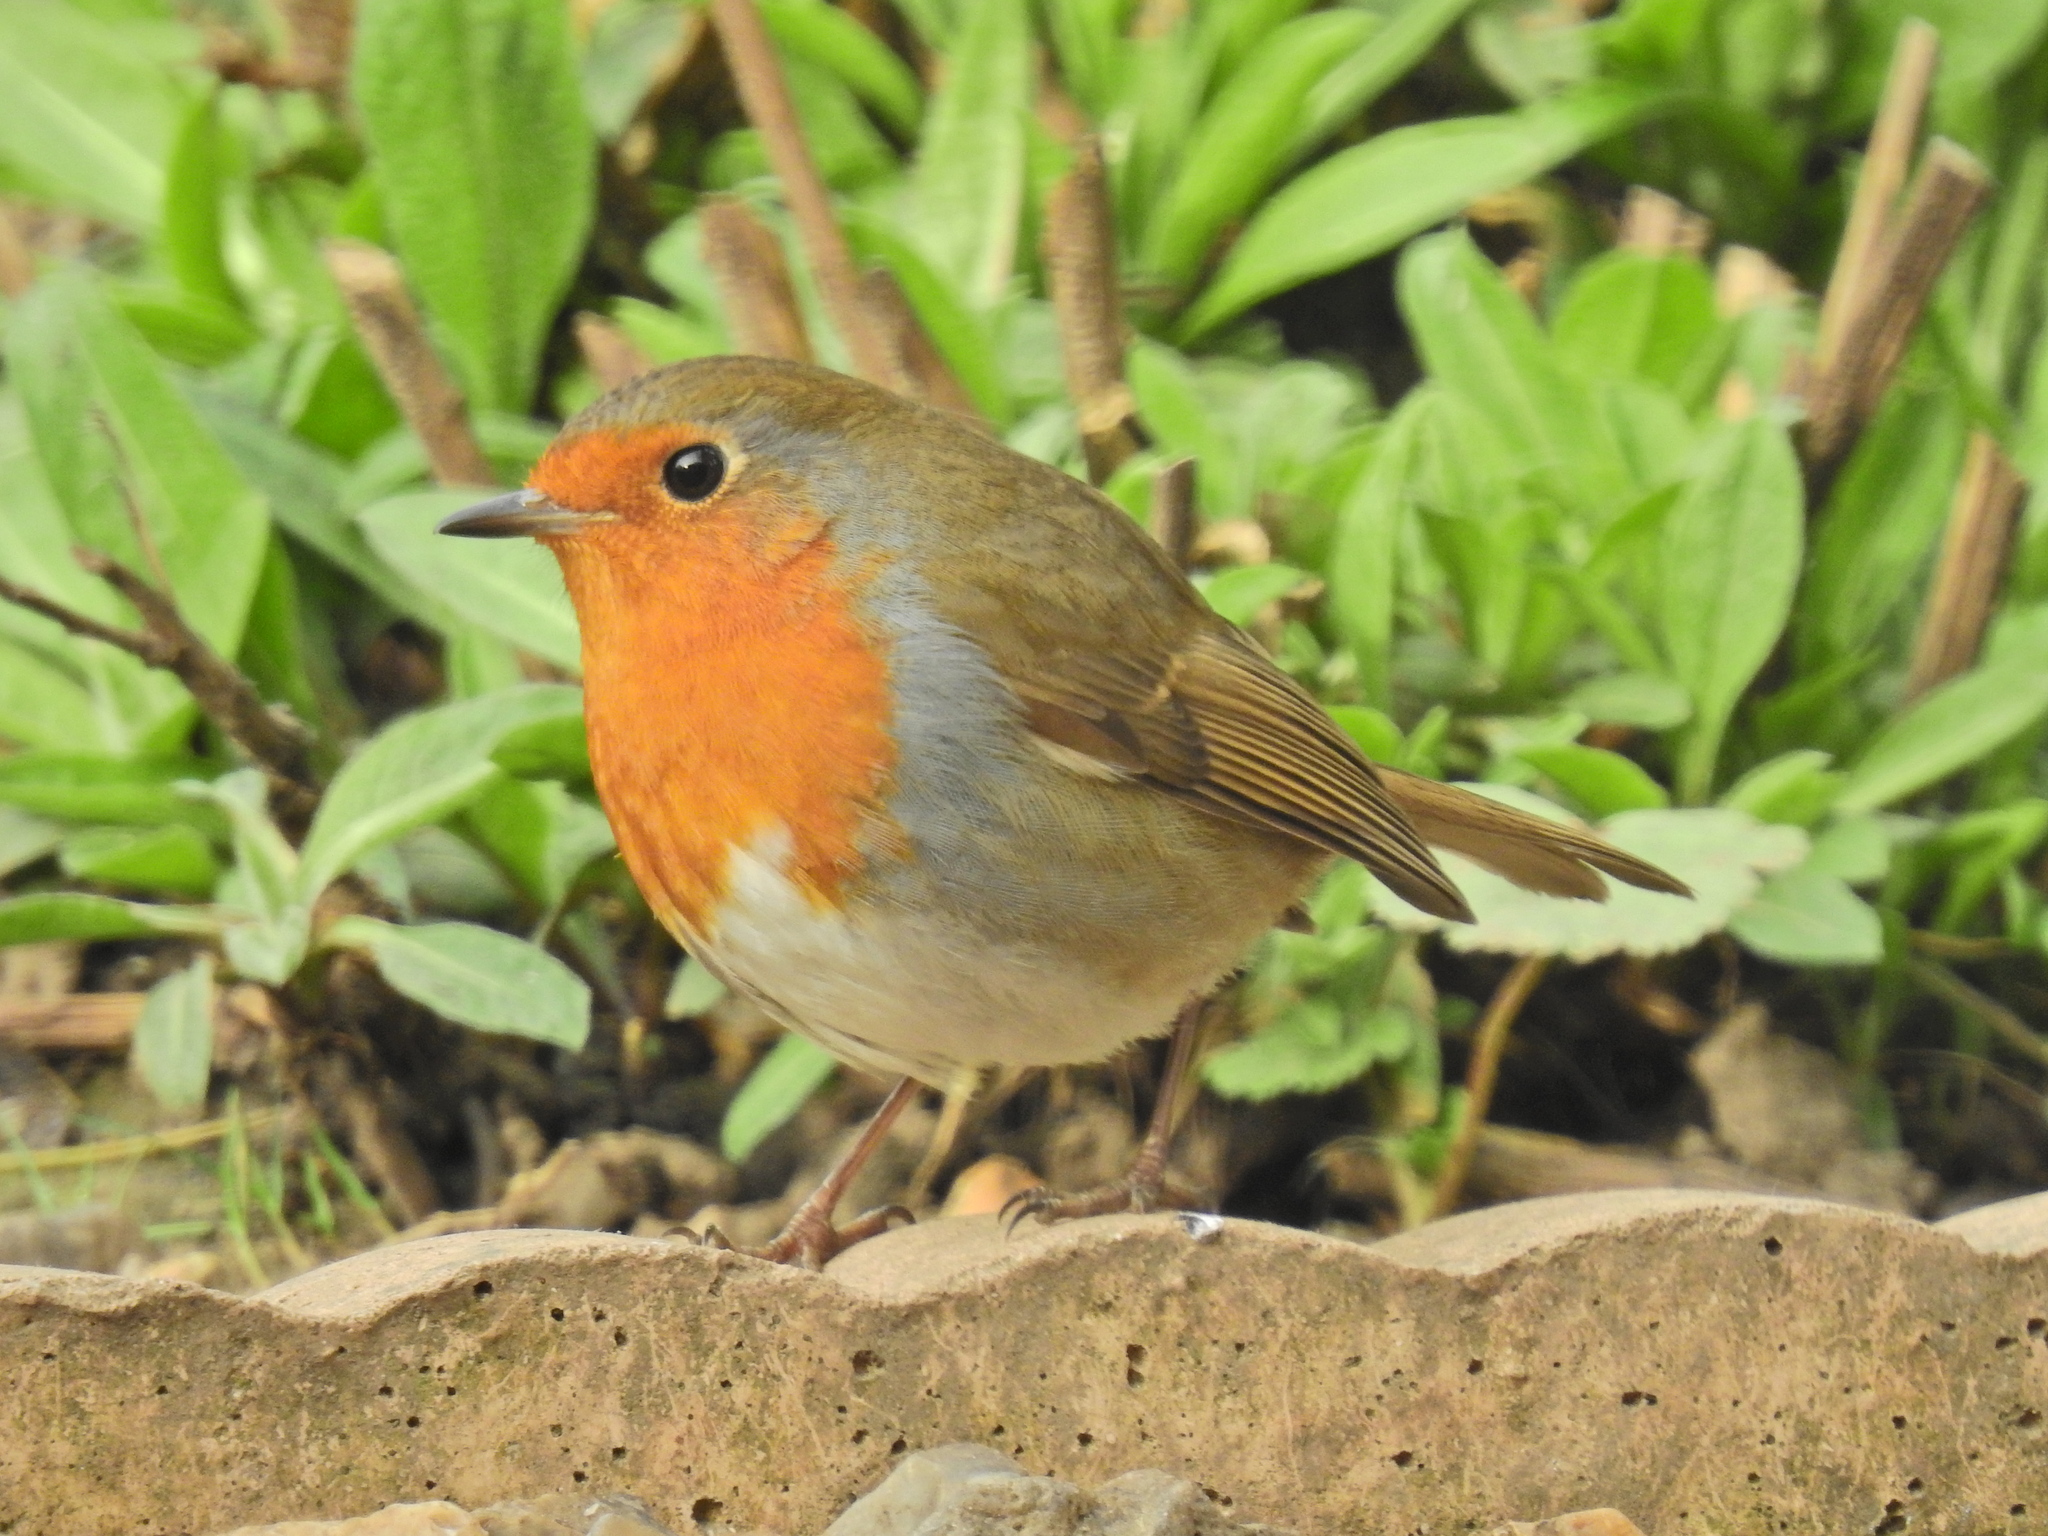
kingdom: Animalia
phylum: Chordata
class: Aves
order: Passeriformes
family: Muscicapidae
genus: Erithacus
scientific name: Erithacus rubecula
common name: European robin
